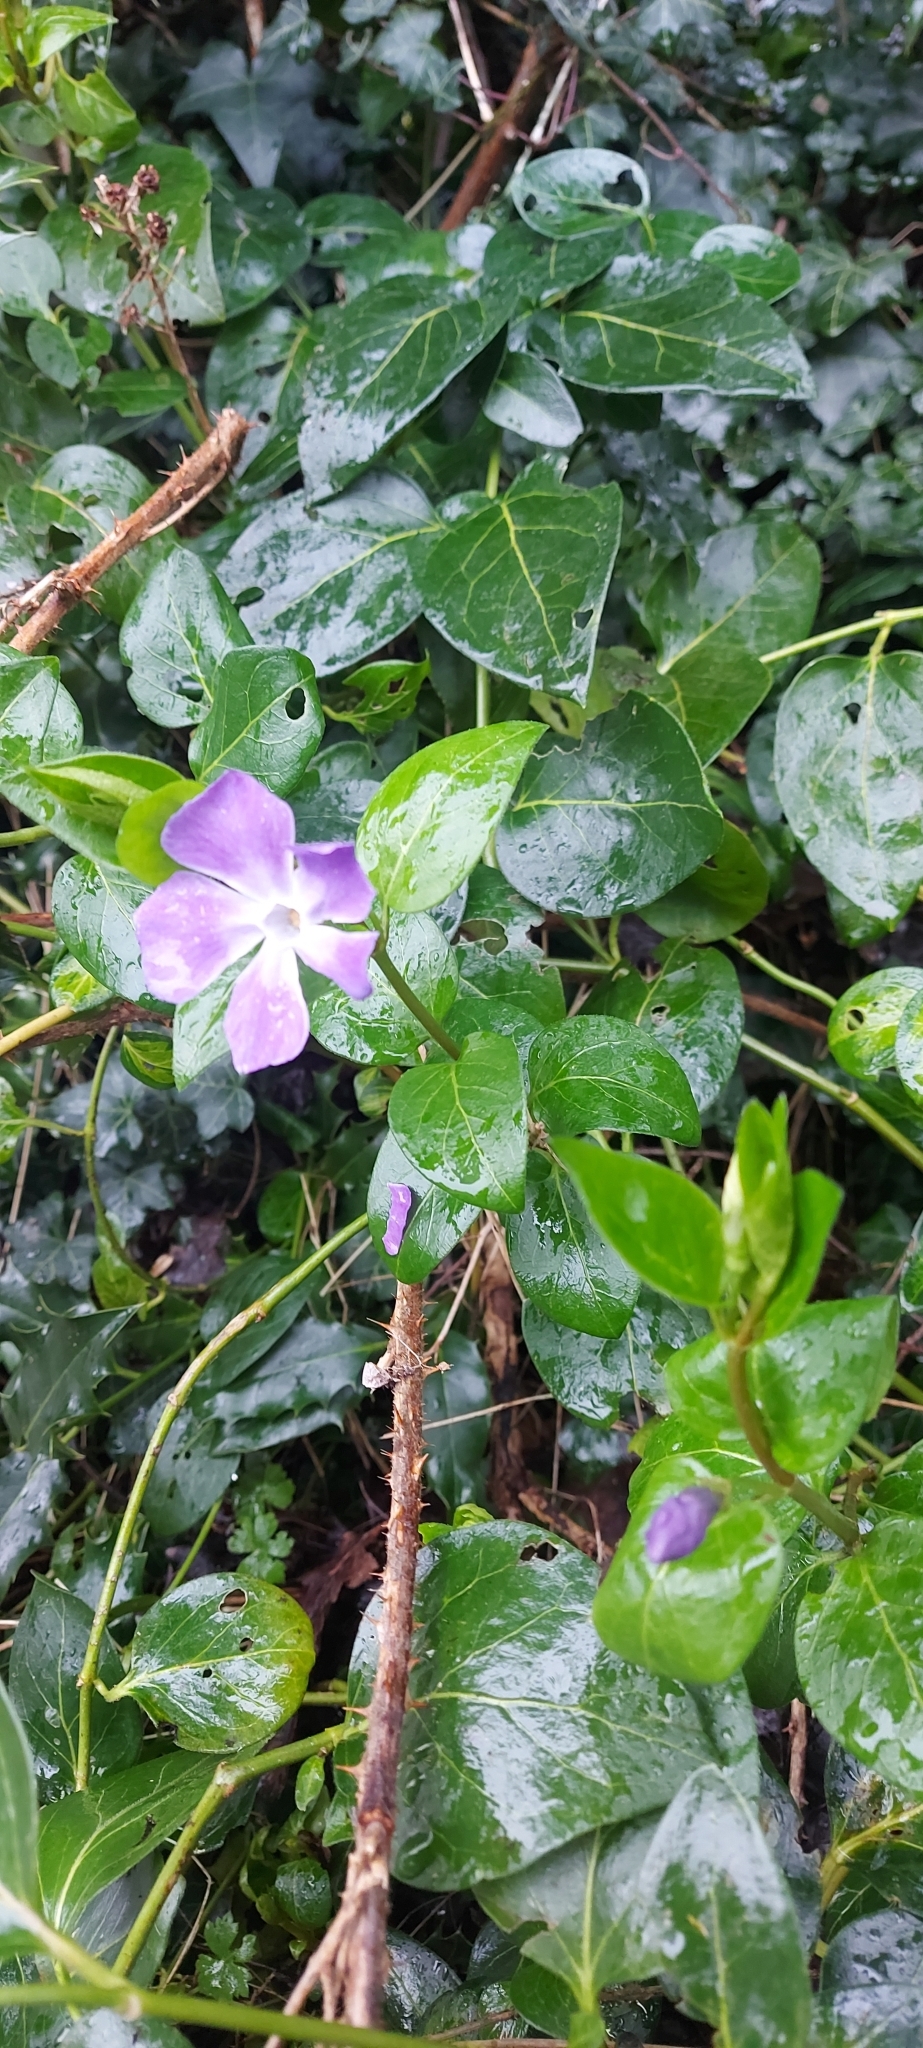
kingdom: Plantae
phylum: Tracheophyta
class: Magnoliopsida
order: Gentianales
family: Apocynaceae
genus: Vinca
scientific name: Vinca major
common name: Greater periwinkle
